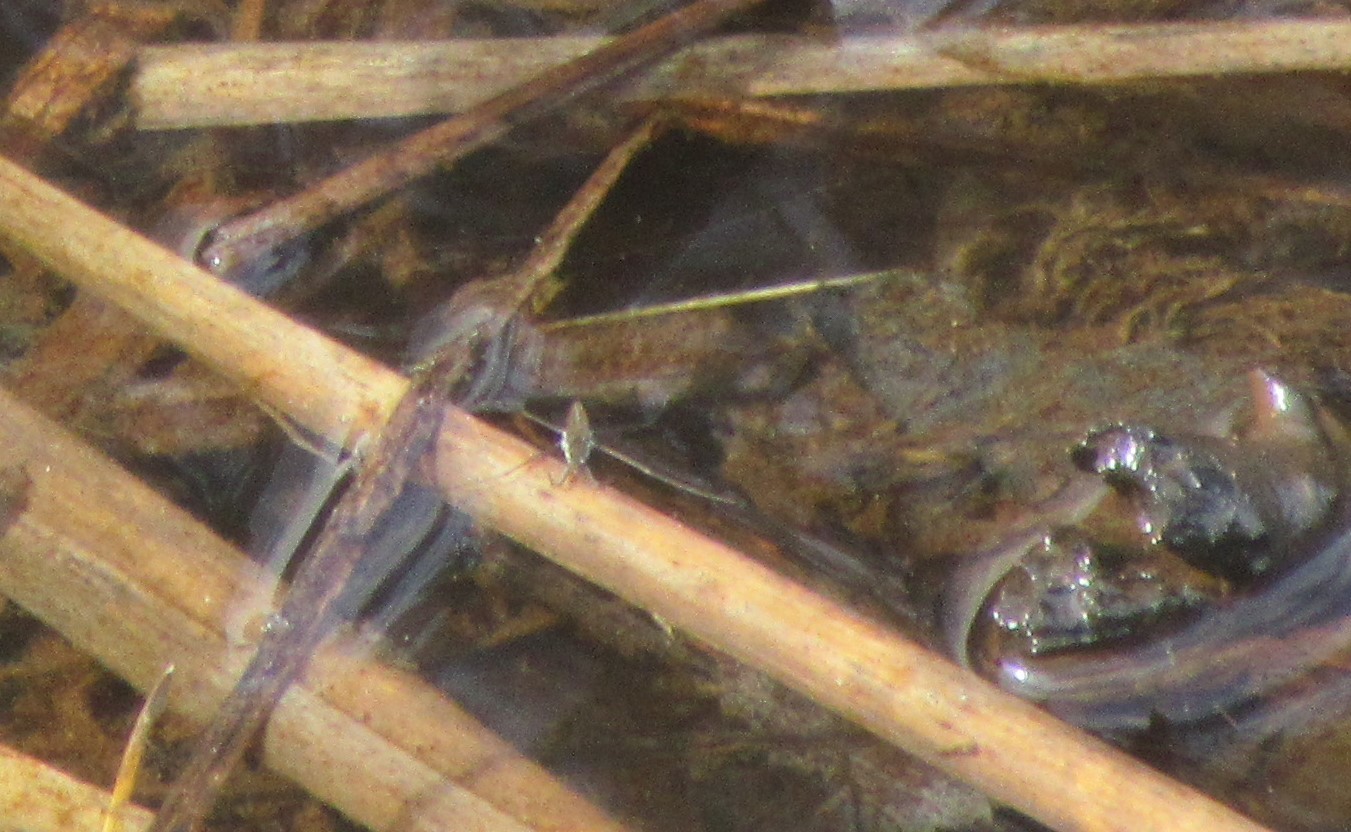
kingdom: Animalia
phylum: Arthropoda
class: Insecta
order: Hemiptera
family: Gerridae
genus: Aquarius
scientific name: Aquarius remigis
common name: Common water strider
